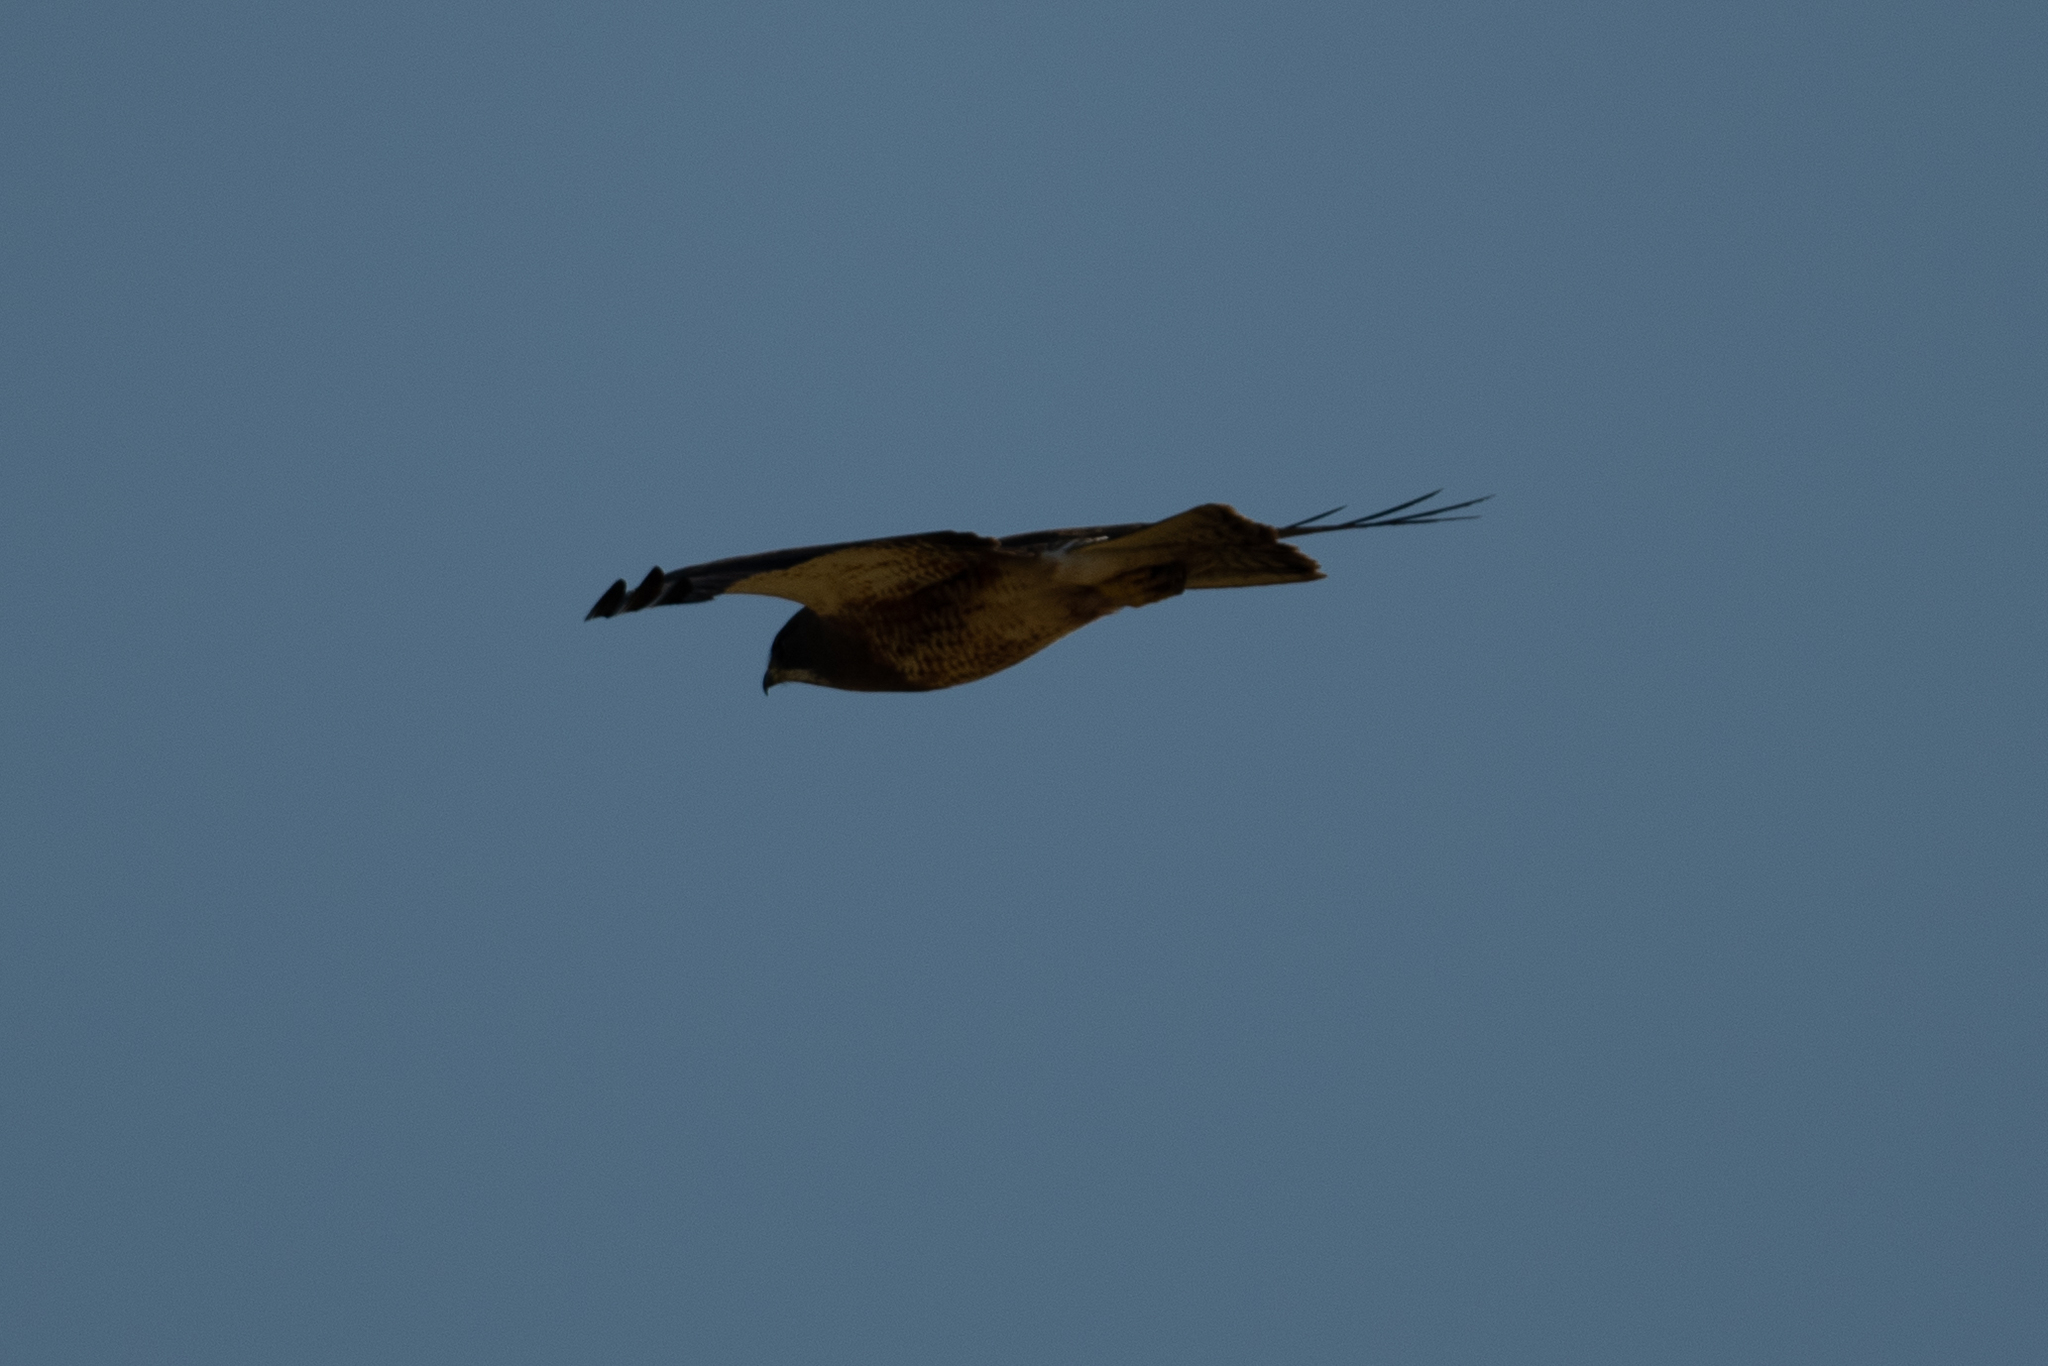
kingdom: Animalia
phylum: Chordata
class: Aves
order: Accipitriformes
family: Accipitridae
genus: Buteo
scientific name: Buteo swainsoni
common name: Swainson's hawk
